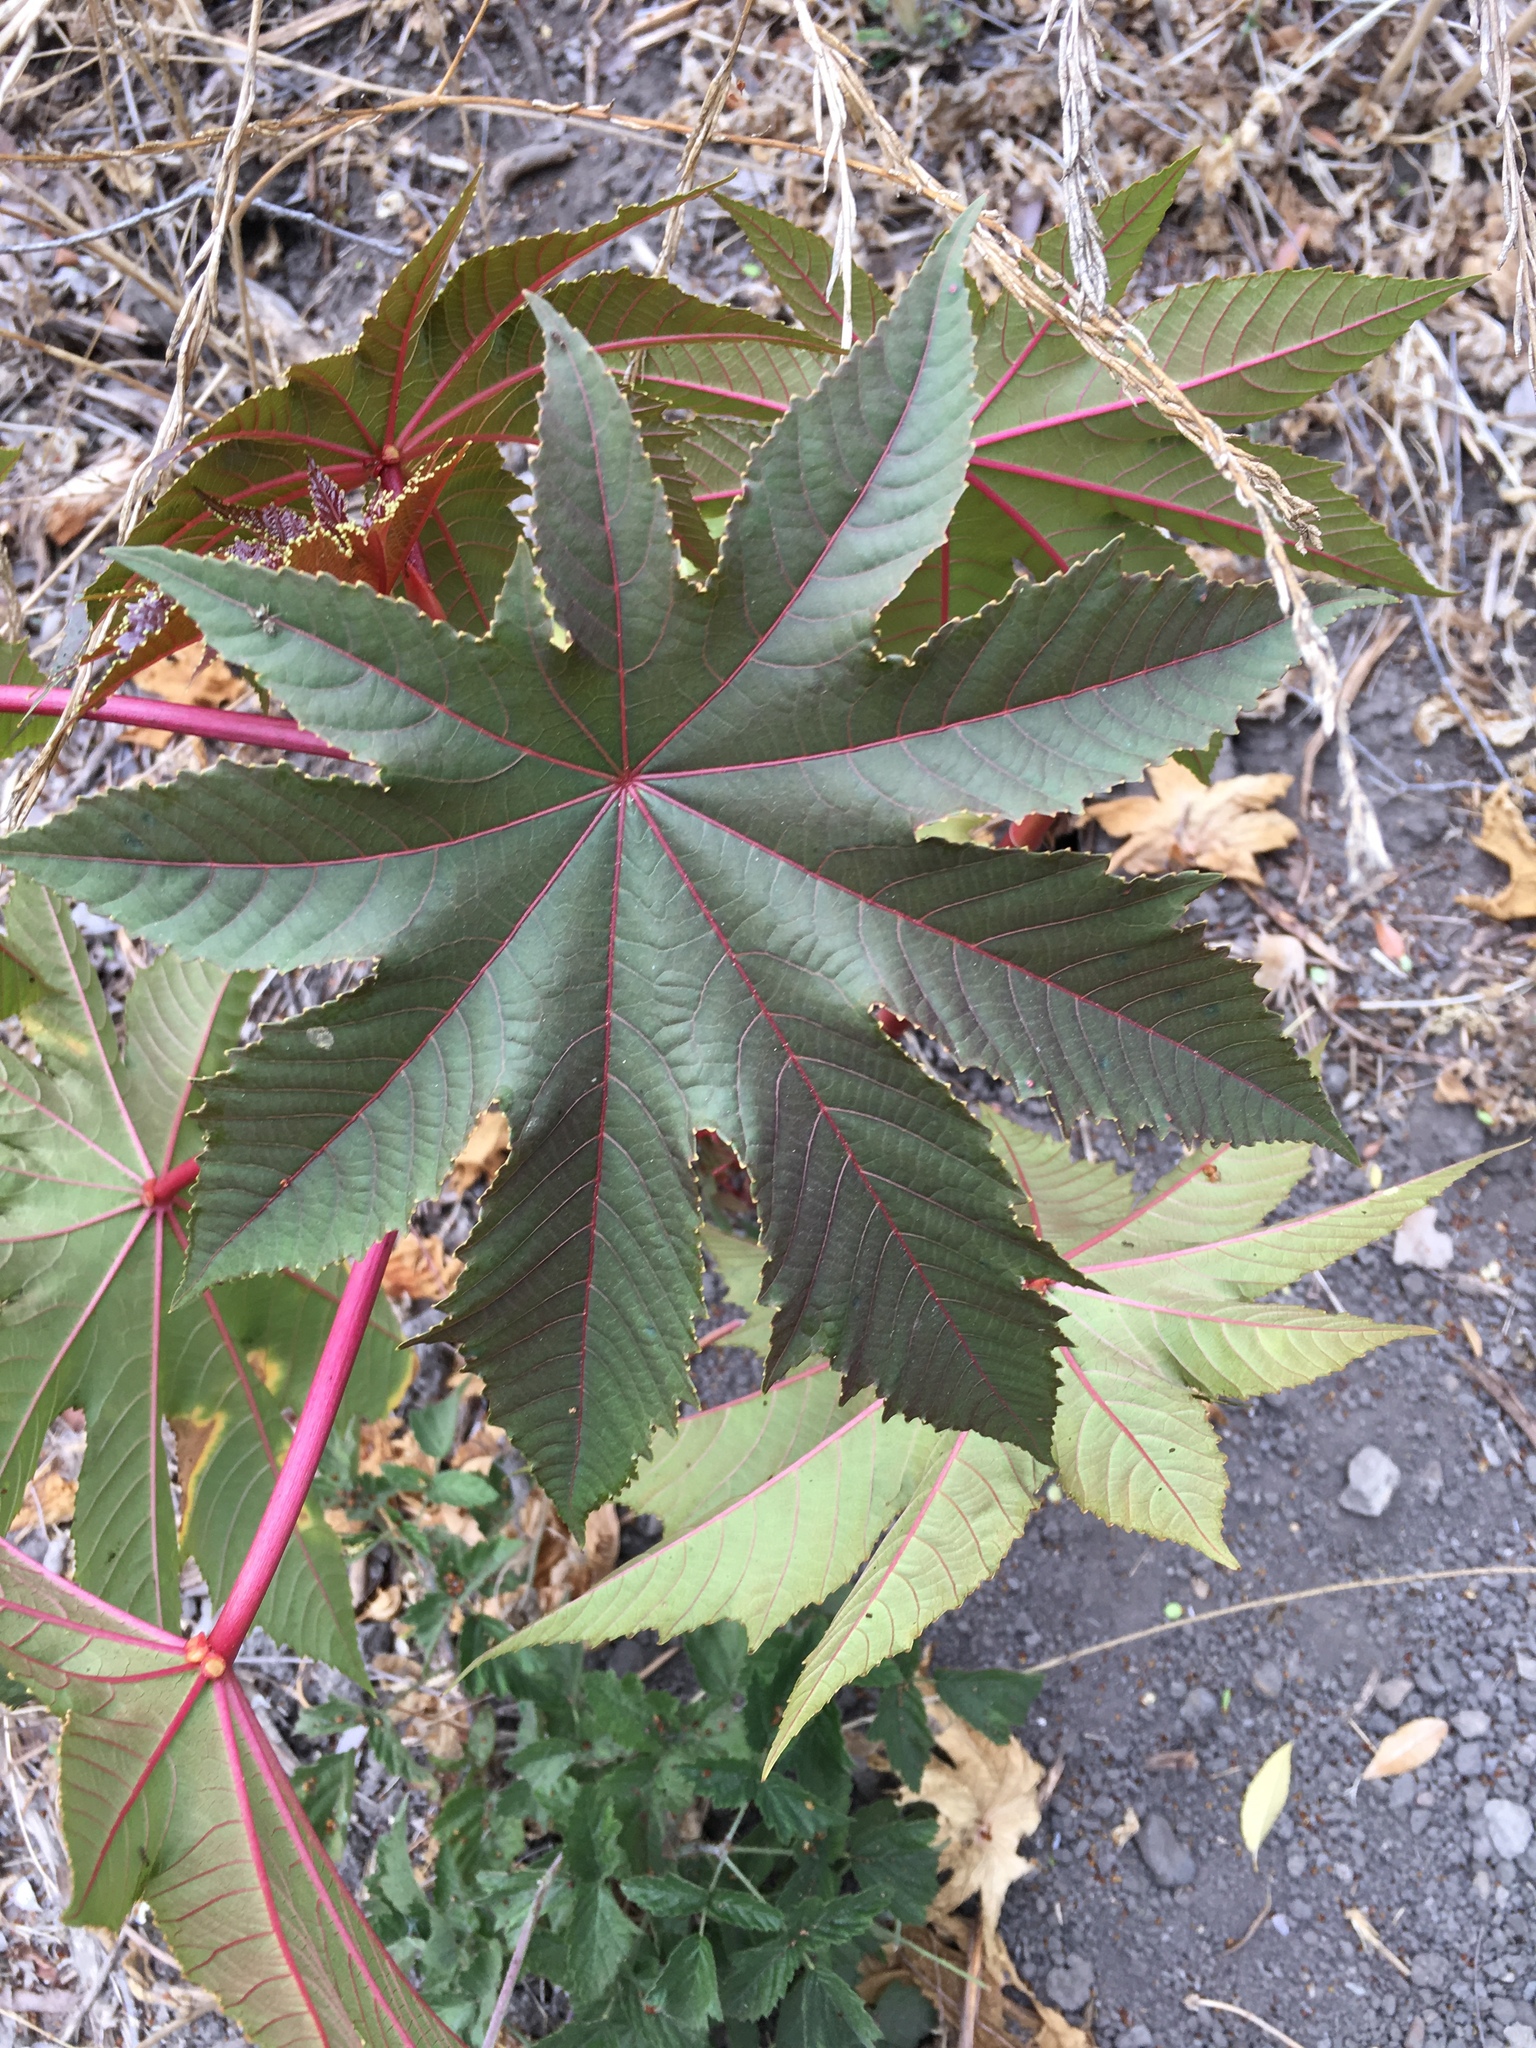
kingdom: Plantae
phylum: Tracheophyta
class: Magnoliopsida
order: Malpighiales
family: Euphorbiaceae
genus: Ricinus
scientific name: Ricinus communis
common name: Castor-oil-plant
